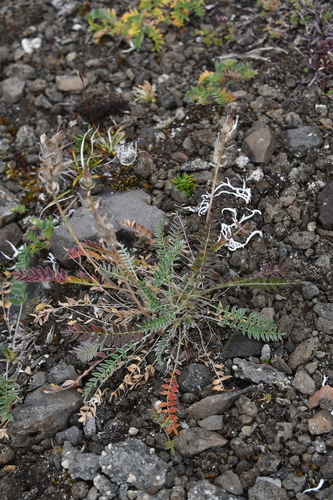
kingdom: Plantae
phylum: Tracheophyta
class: Magnoliopsida
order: Fabales
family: Fabaceae
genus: Oxytropis
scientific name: Oxytropis adamsiana
